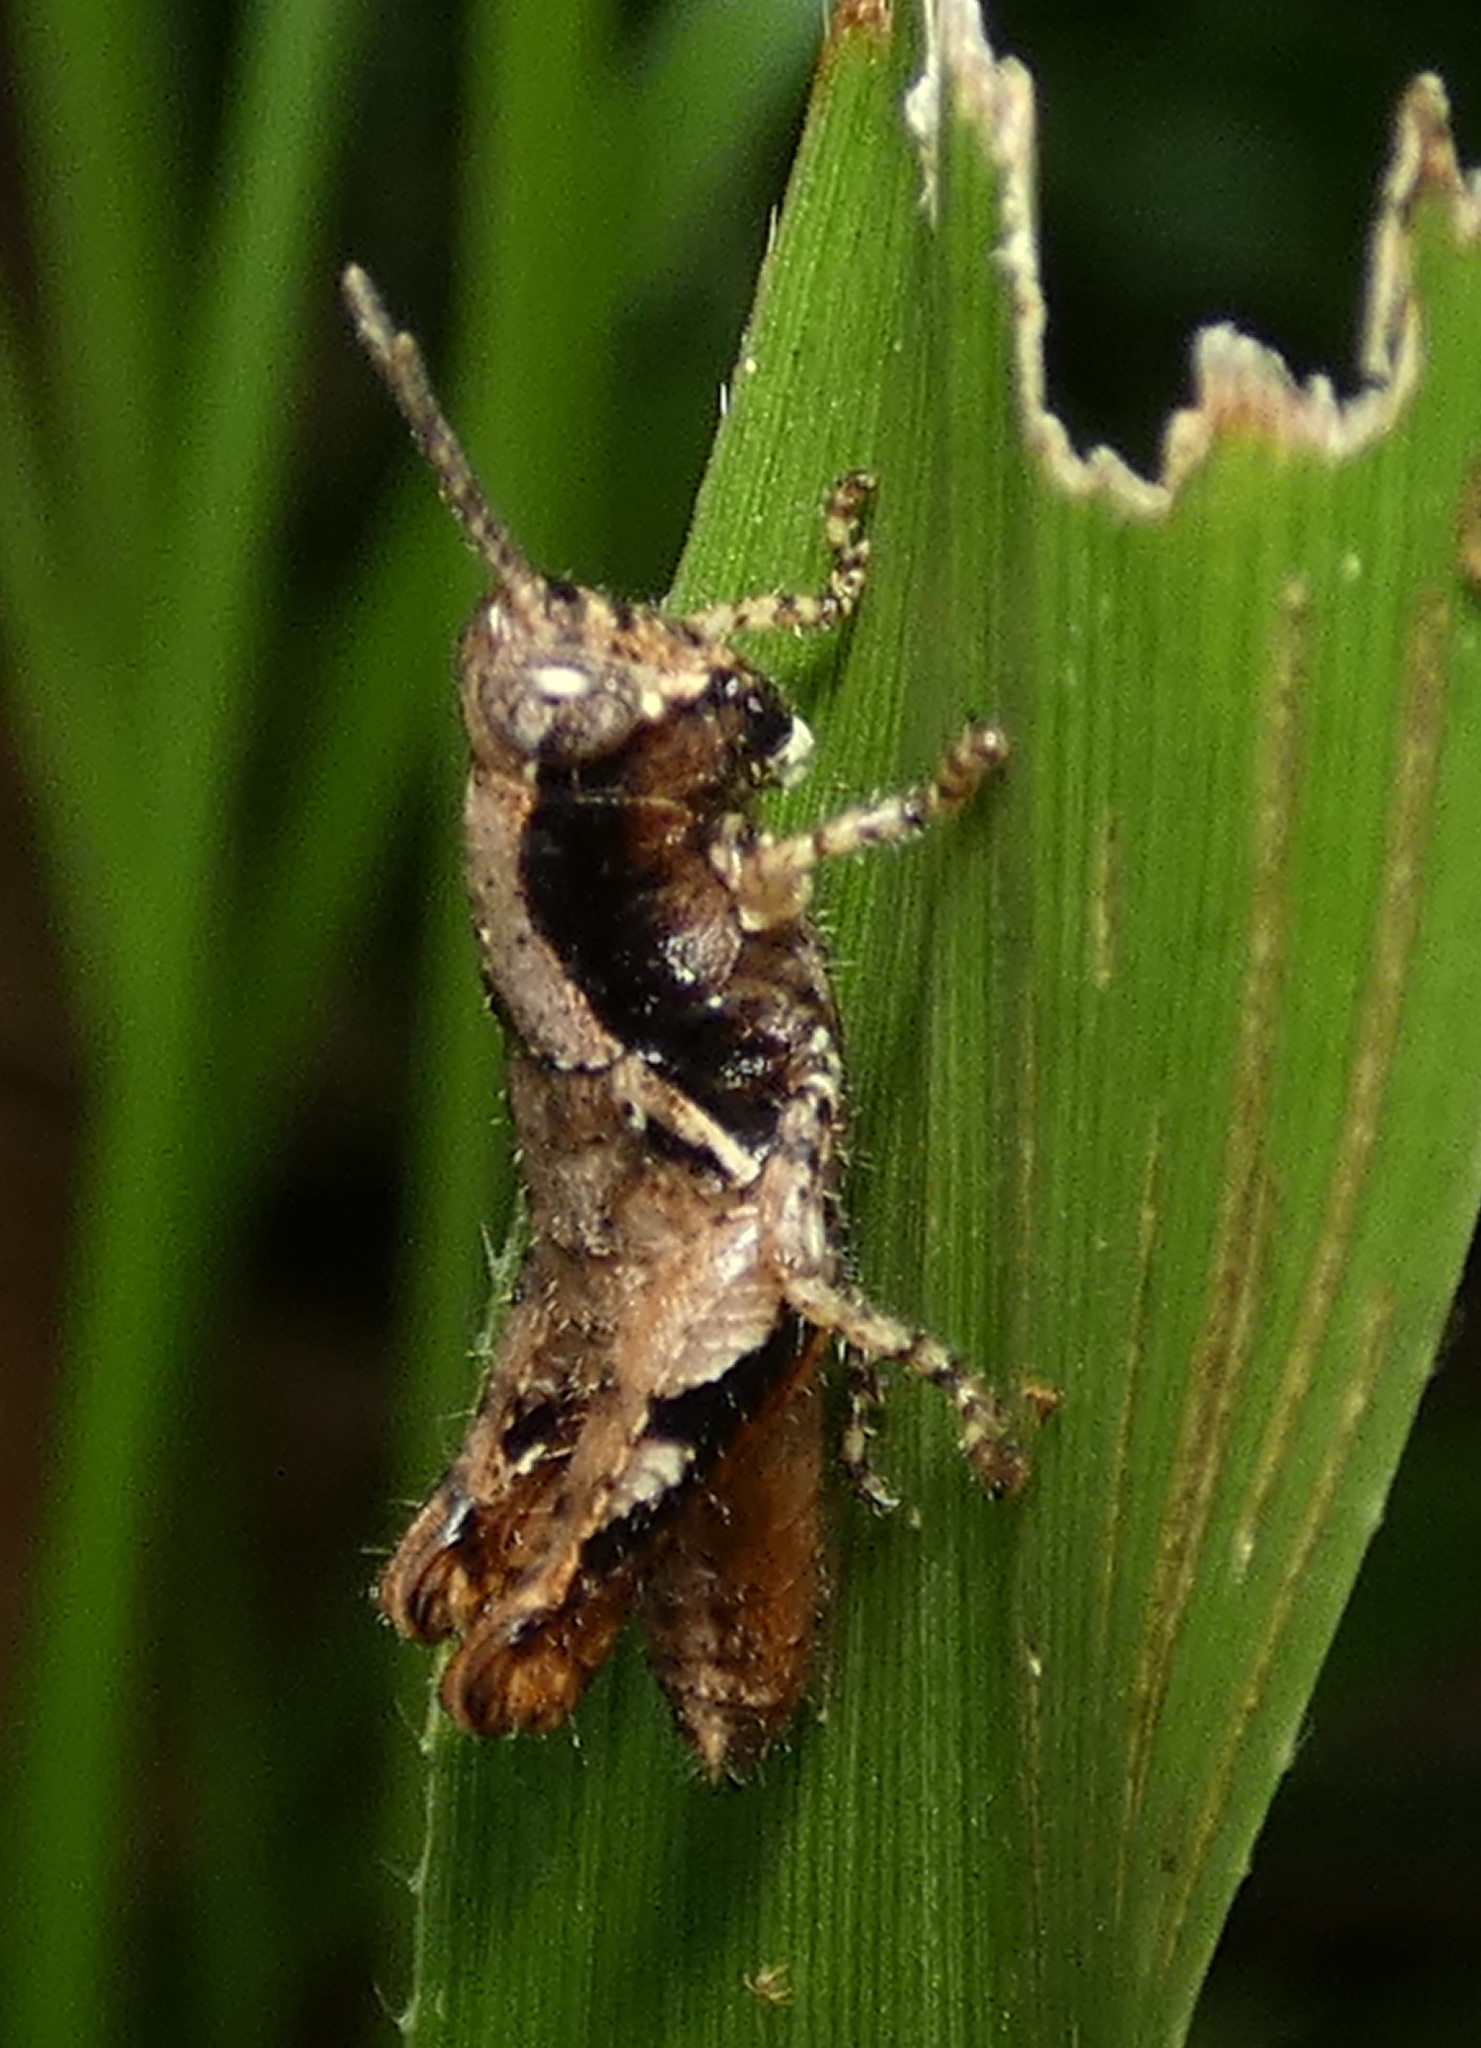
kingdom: Animalia
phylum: Arthropoda
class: Insecta
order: Orthoptera
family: Acrididae
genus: Eujivarus
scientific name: Eujivarus meridionalis
